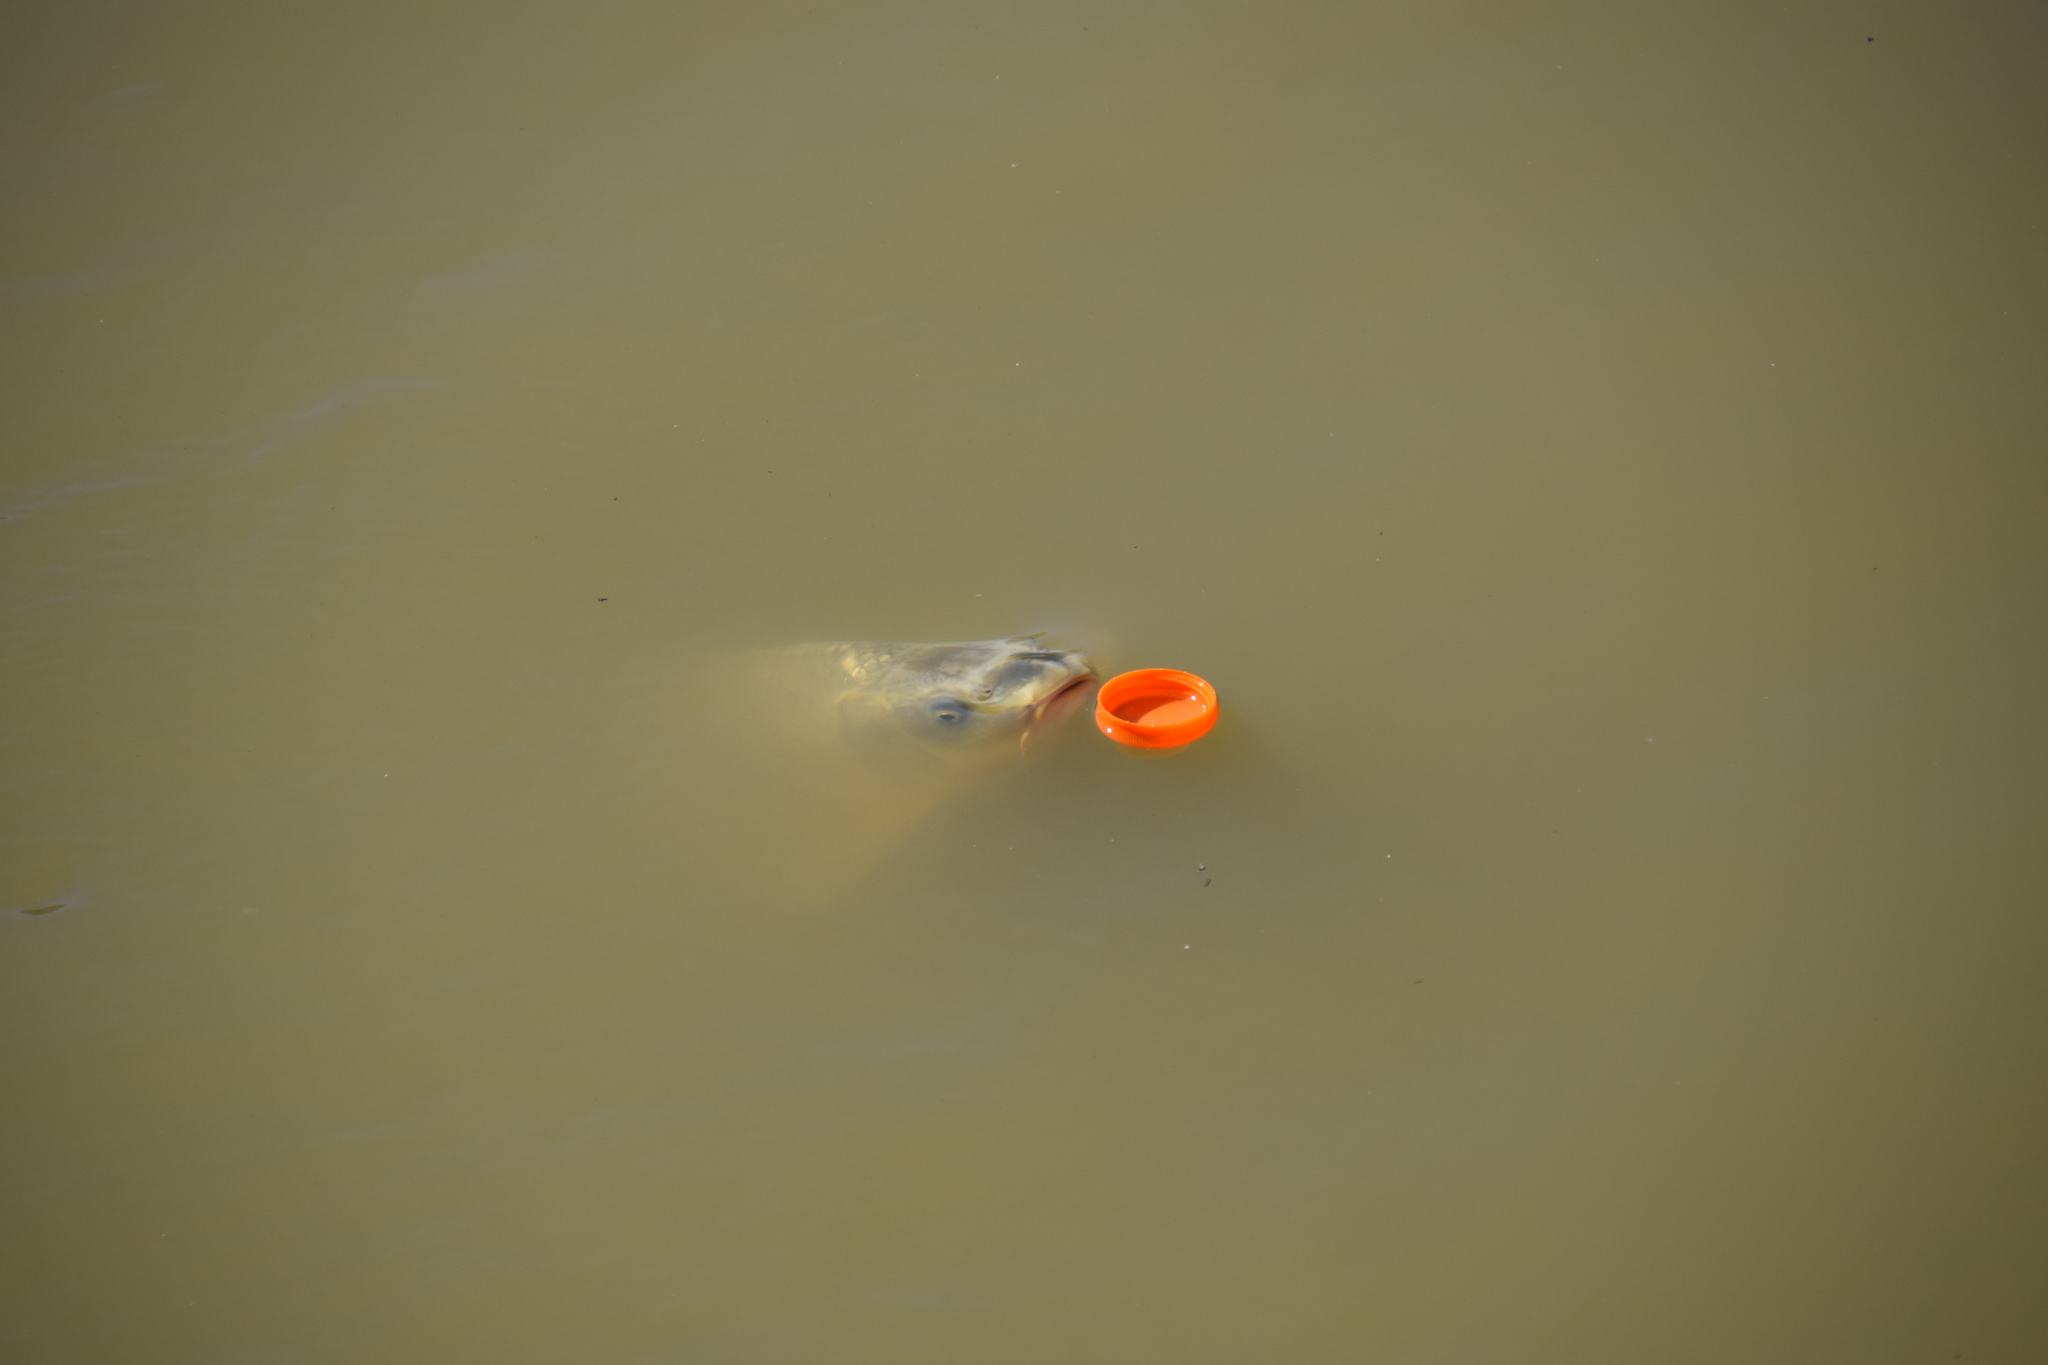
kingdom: Animalia
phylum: Chordata
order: Cypriniformes
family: Cyprinidae
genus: Cyprinus
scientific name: Cyprinus carpio
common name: Common carp
